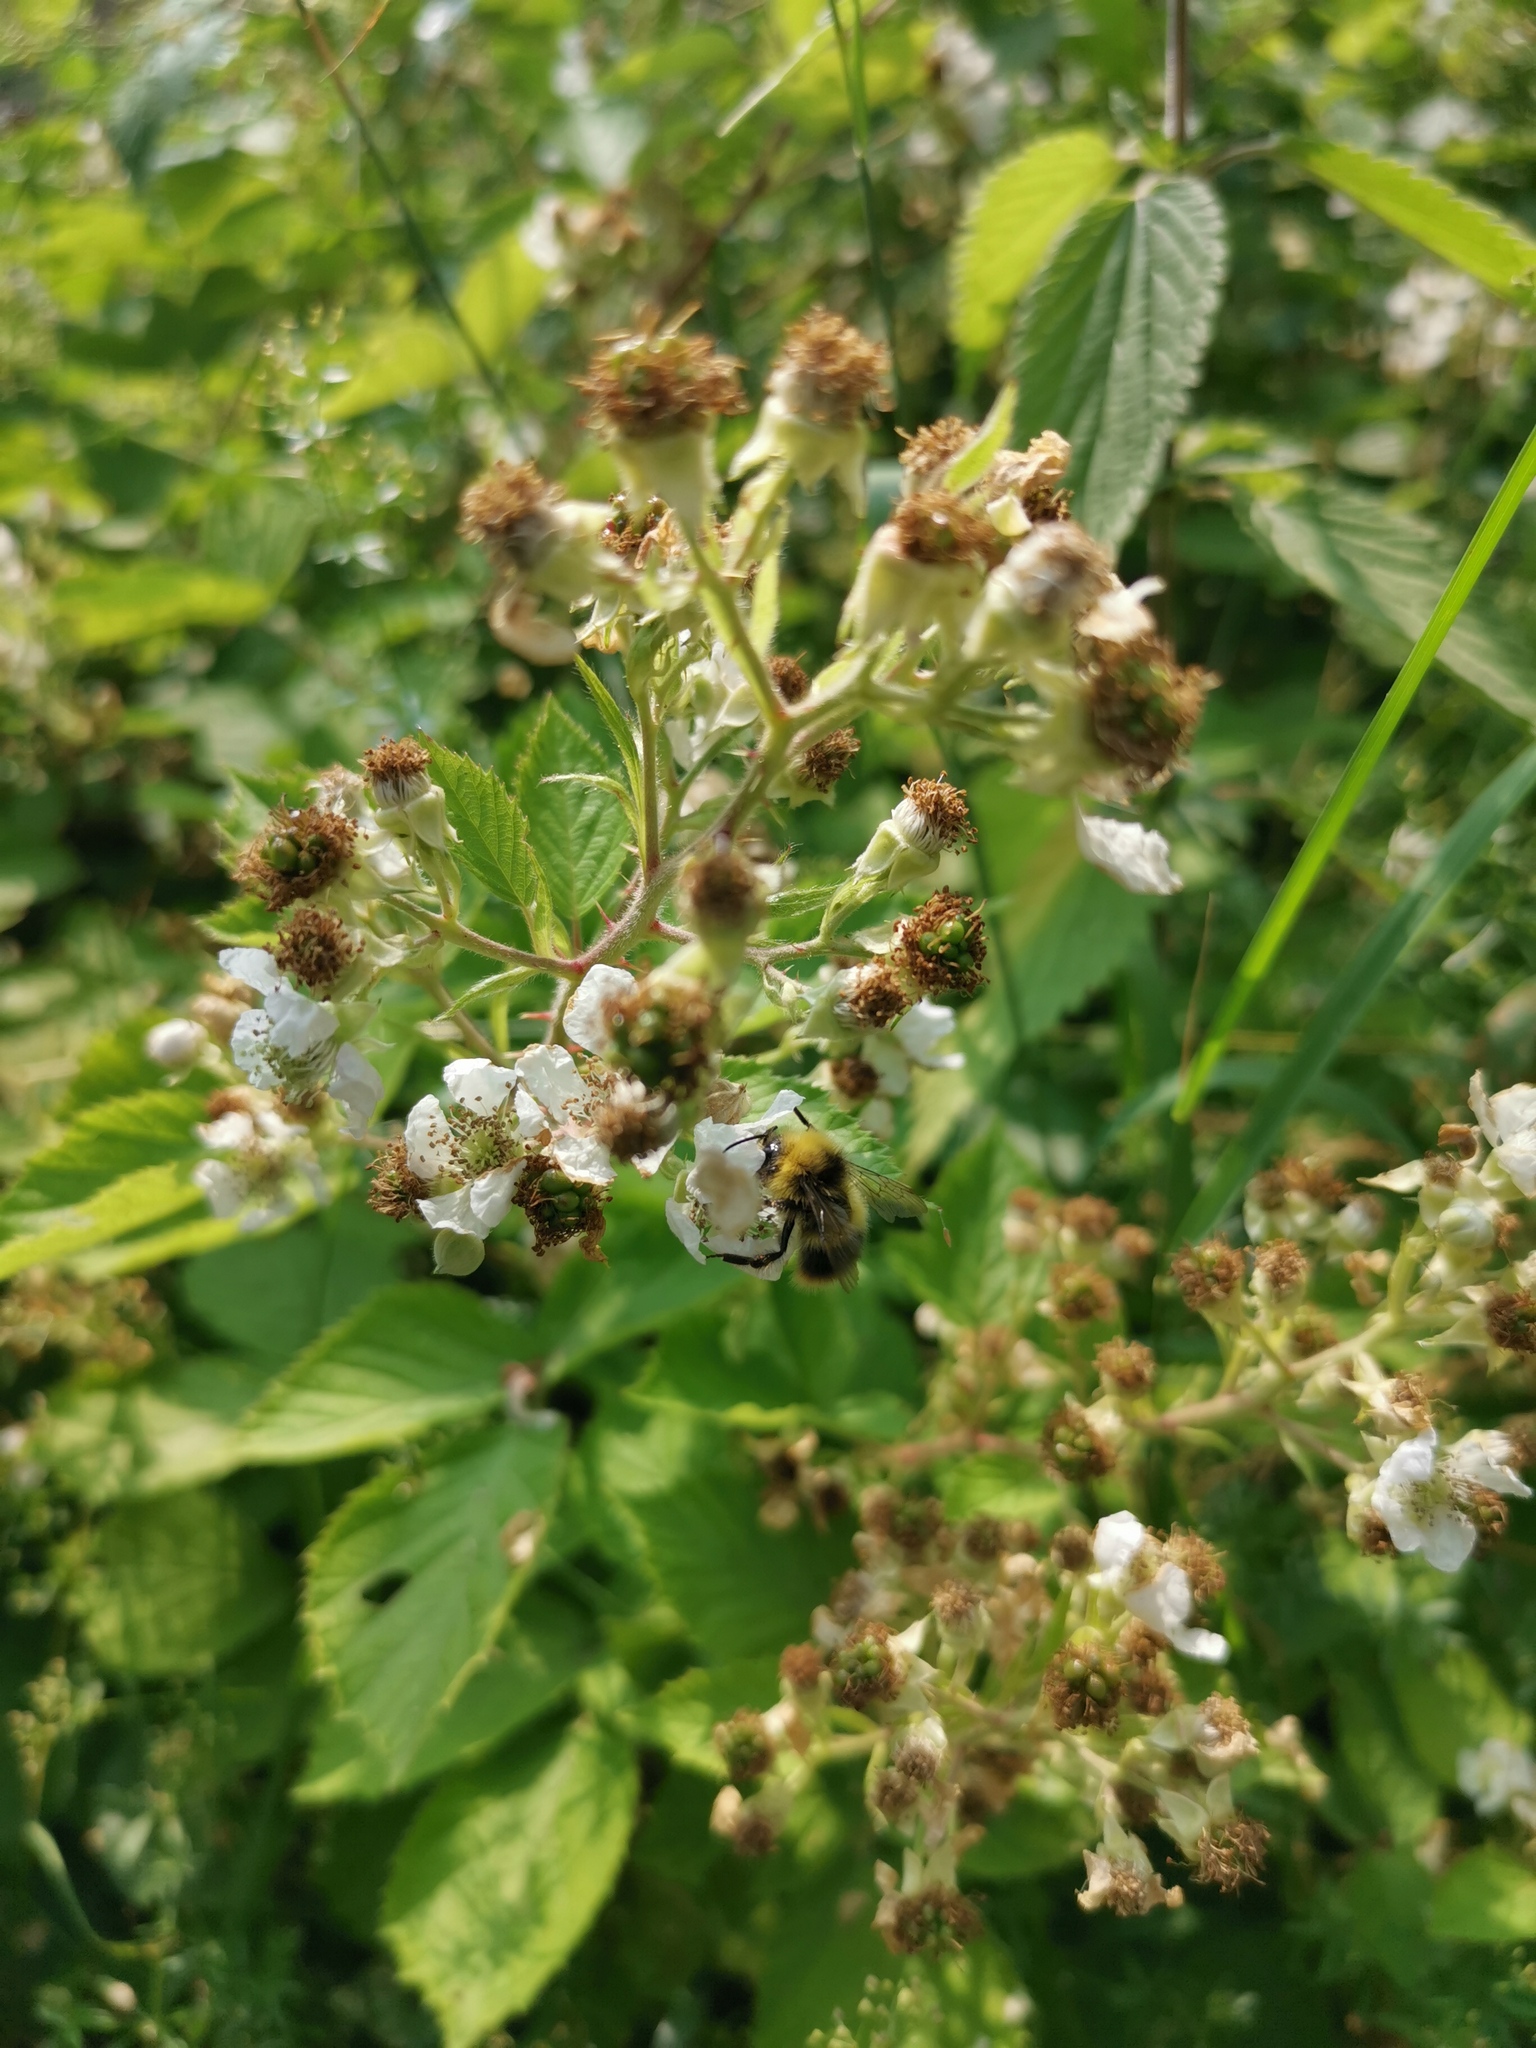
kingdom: Animalia
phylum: Arthropoda
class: Insecta
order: Hymenoptera
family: Apidae
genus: Bombus
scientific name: Bombus pratorum
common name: Early humble-bee
